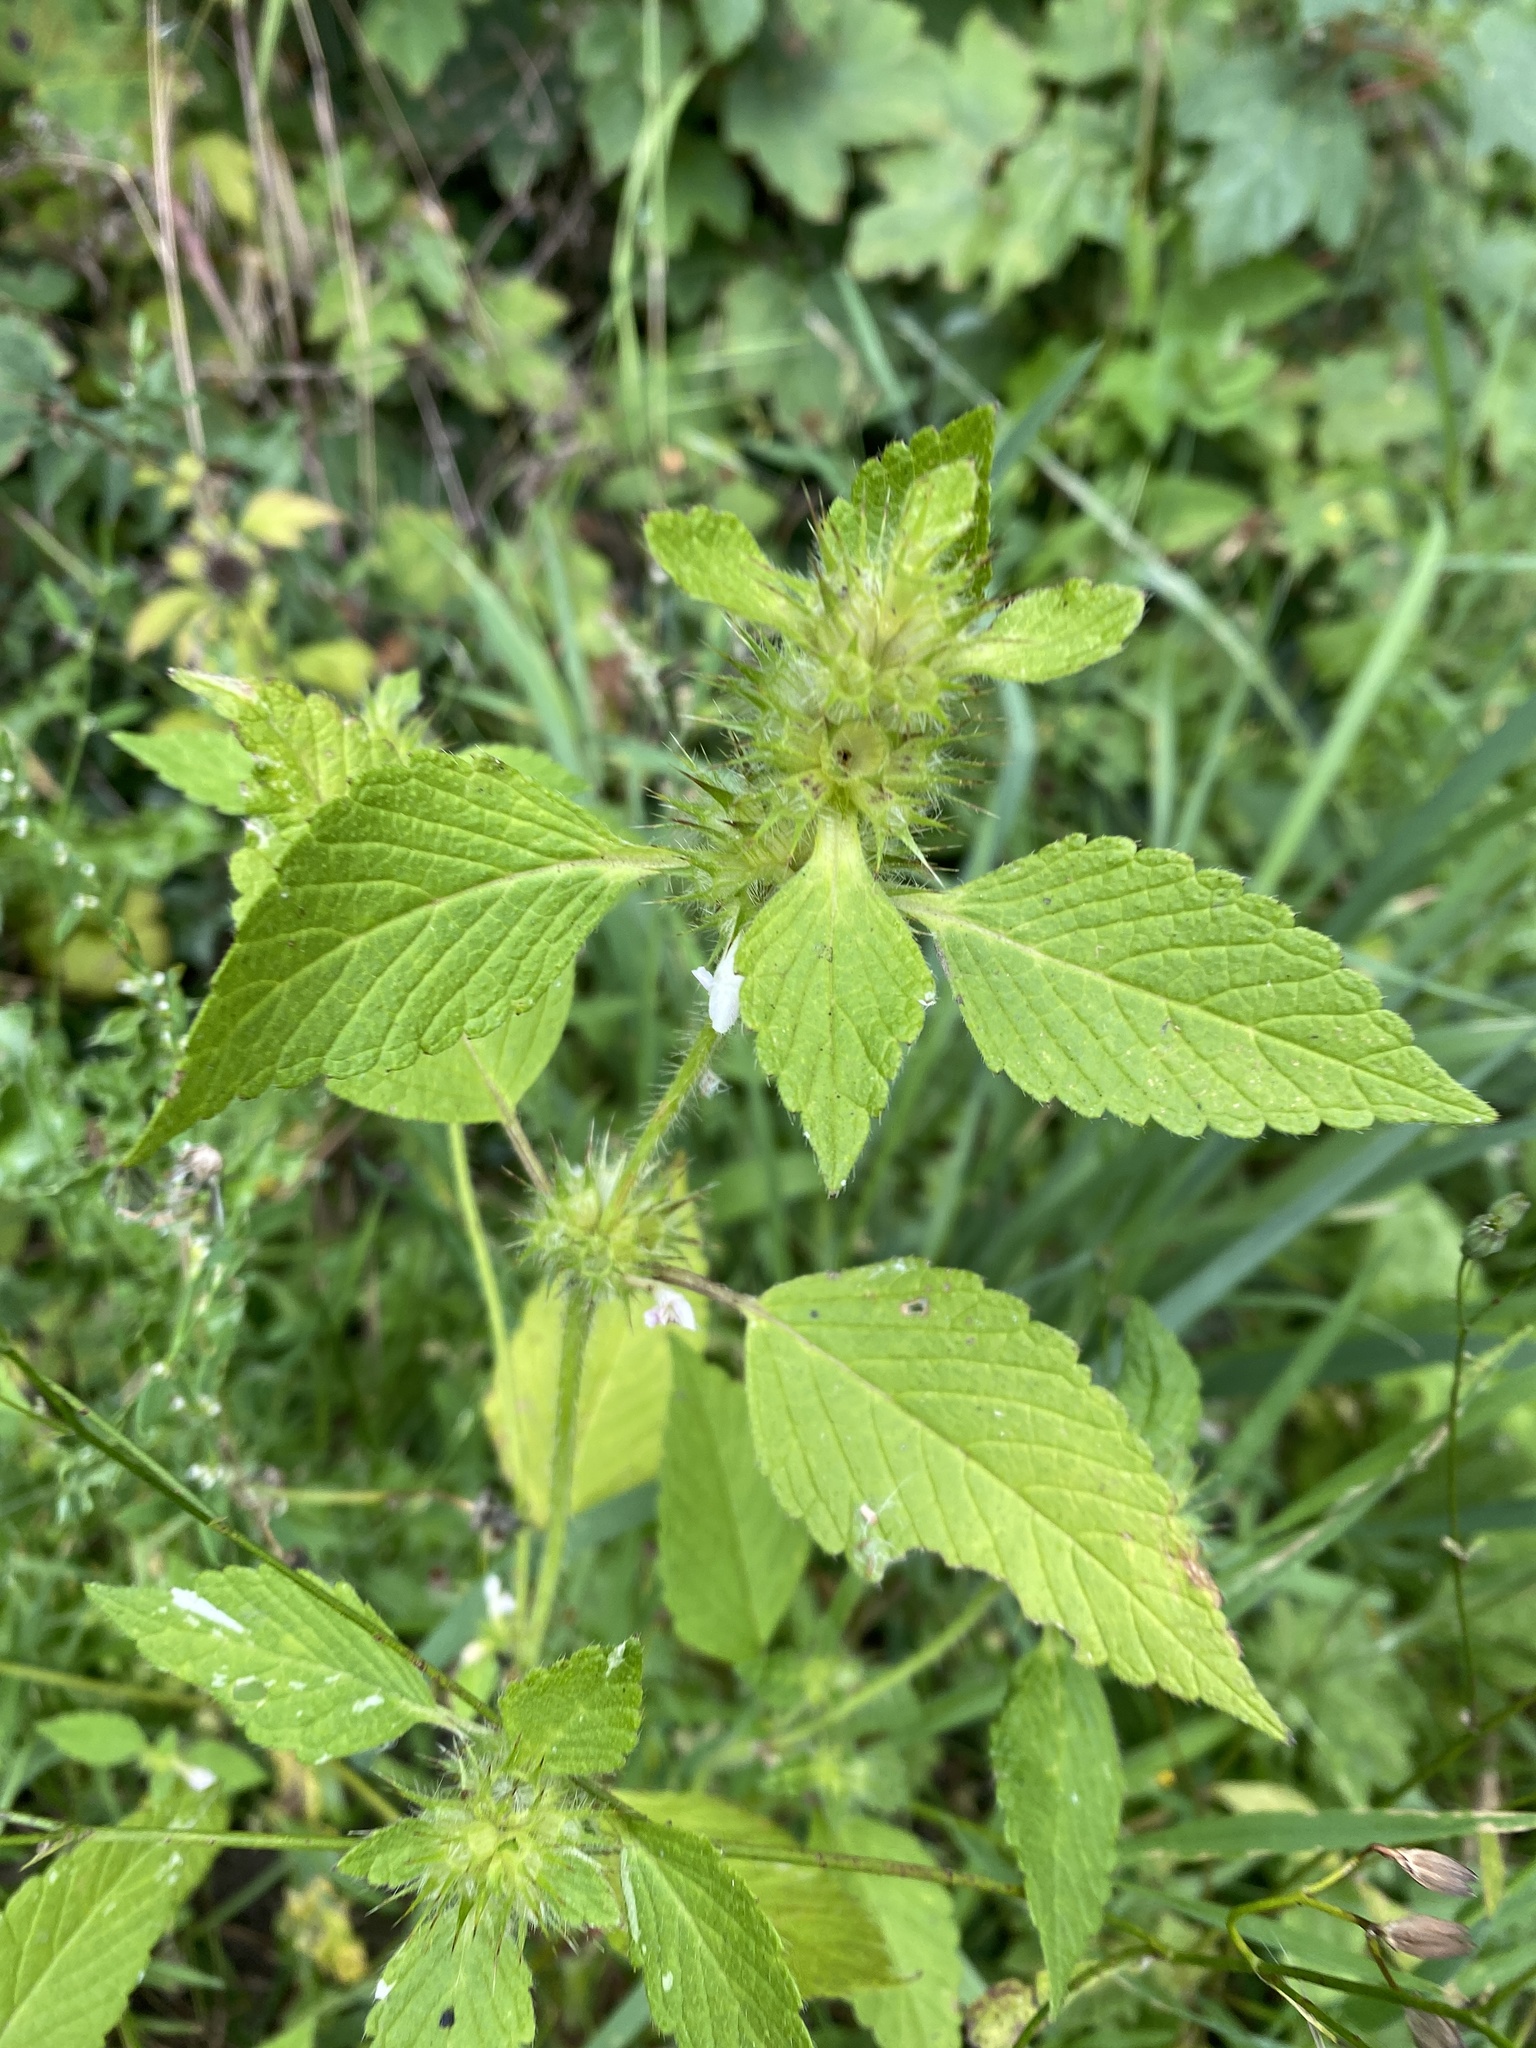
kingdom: Plantae
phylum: Tracheophyta
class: Magnoliopsida
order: Lamiales
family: Lamiaceae
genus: Galeopsis
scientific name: Galeopsis tetrahit
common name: Common hemp-nettle
